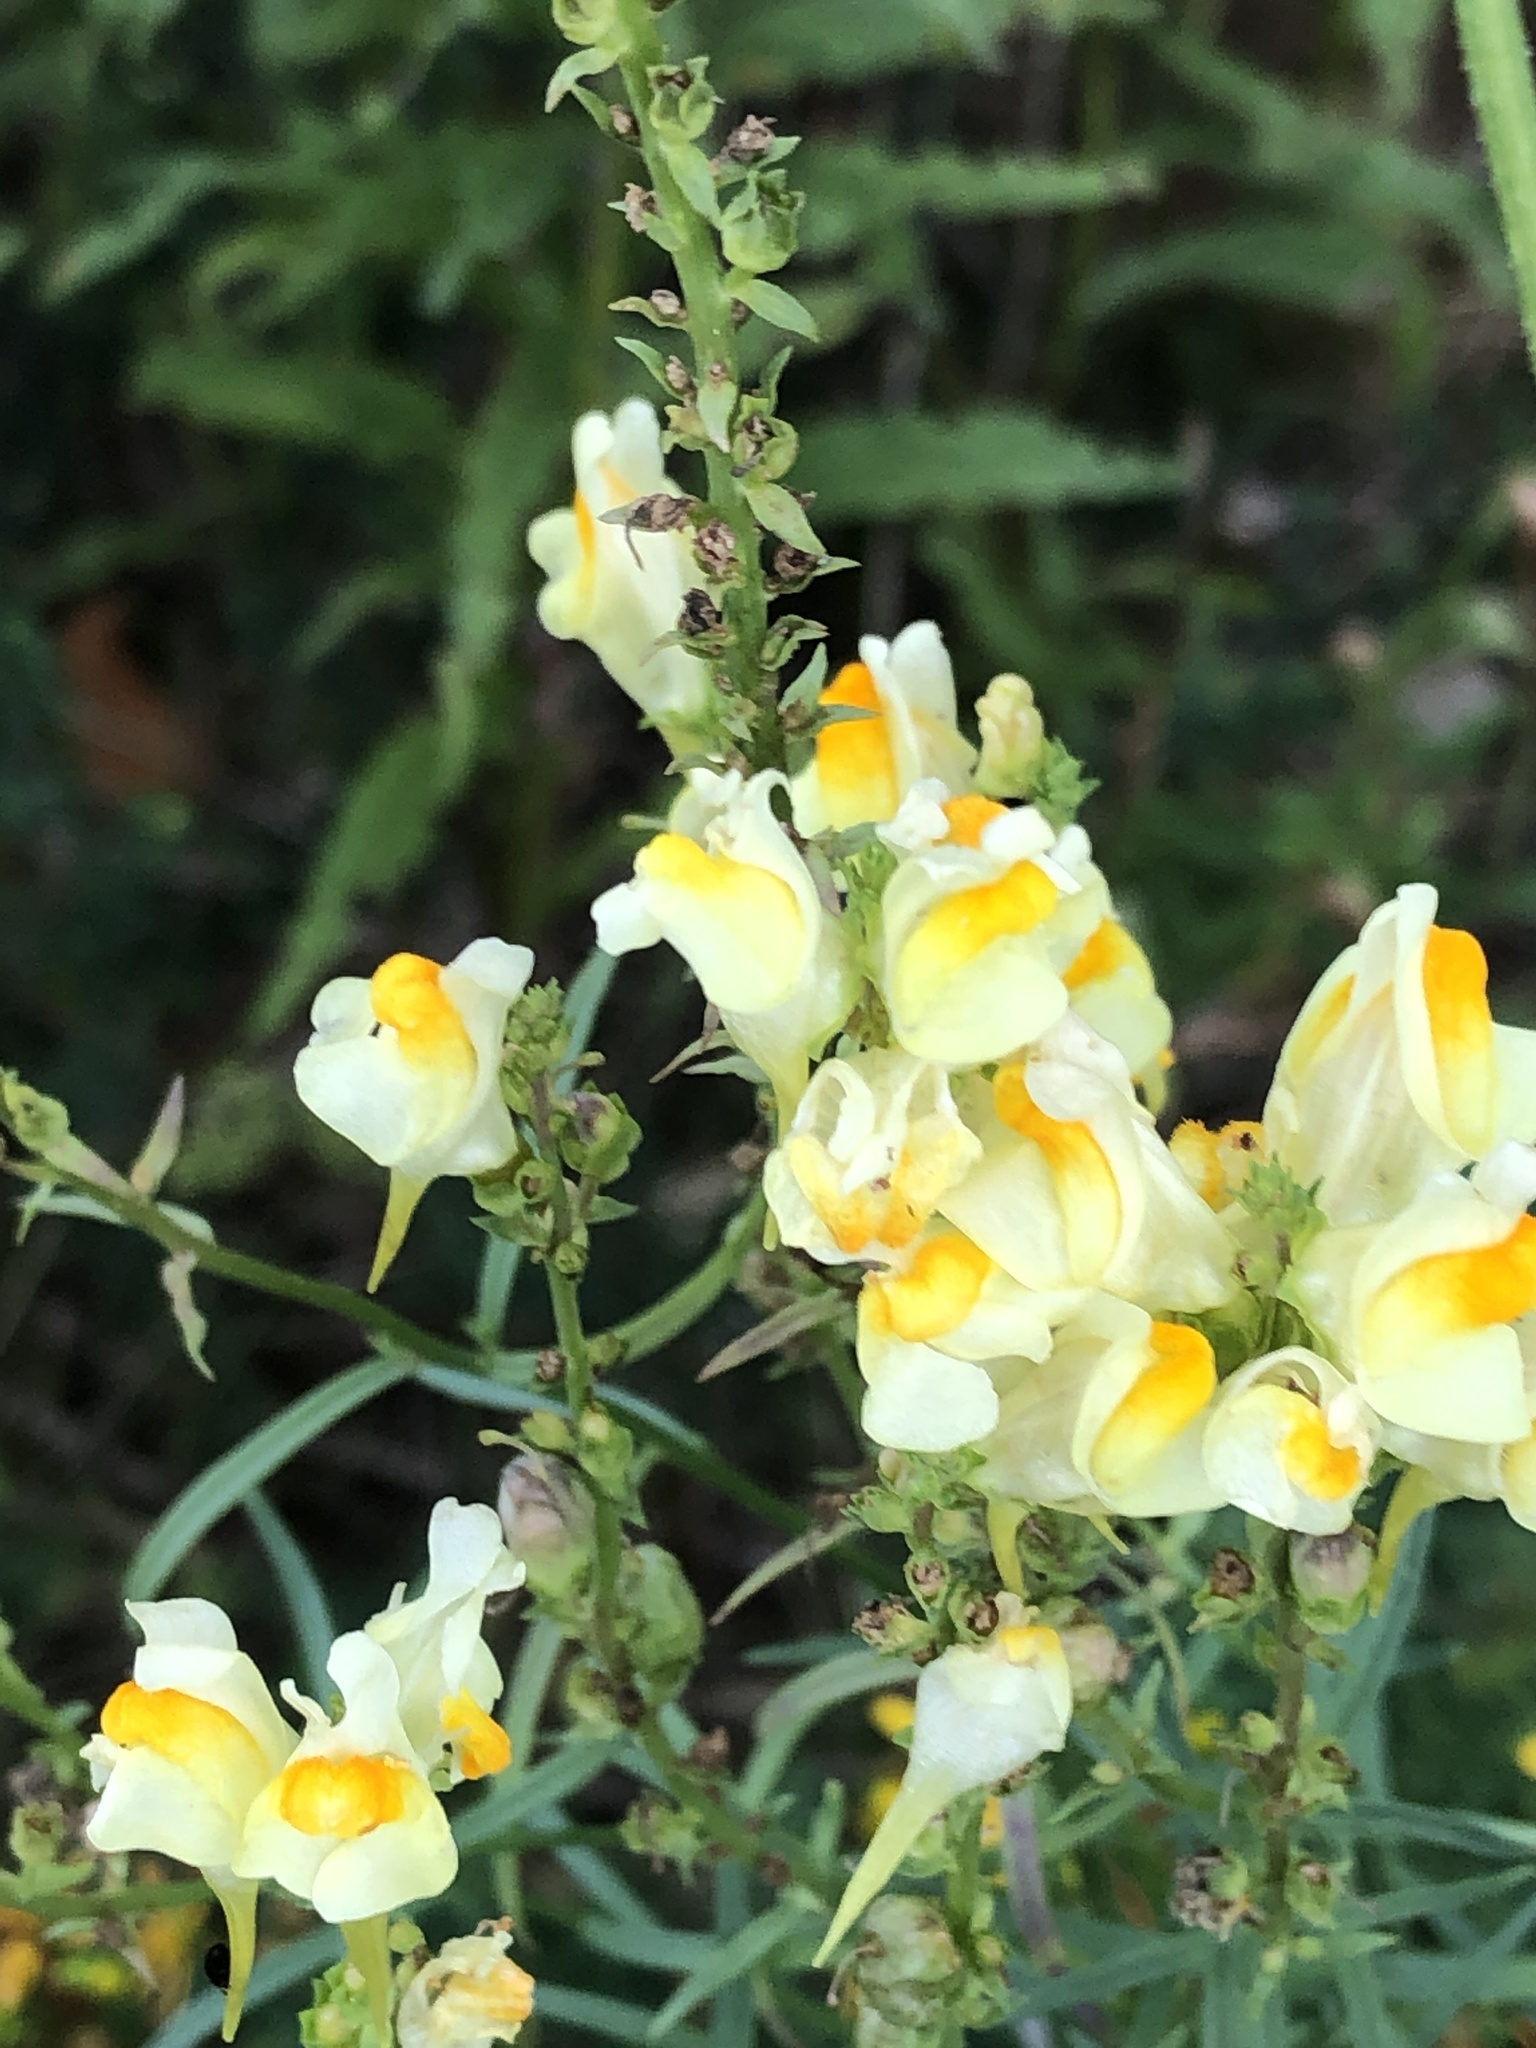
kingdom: Plantae
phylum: Tracheophyta
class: Magnoliopsida
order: Lamiales
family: Plantaginaceae
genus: Linaria
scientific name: Linaria vulgaris
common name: Butter and eggs
